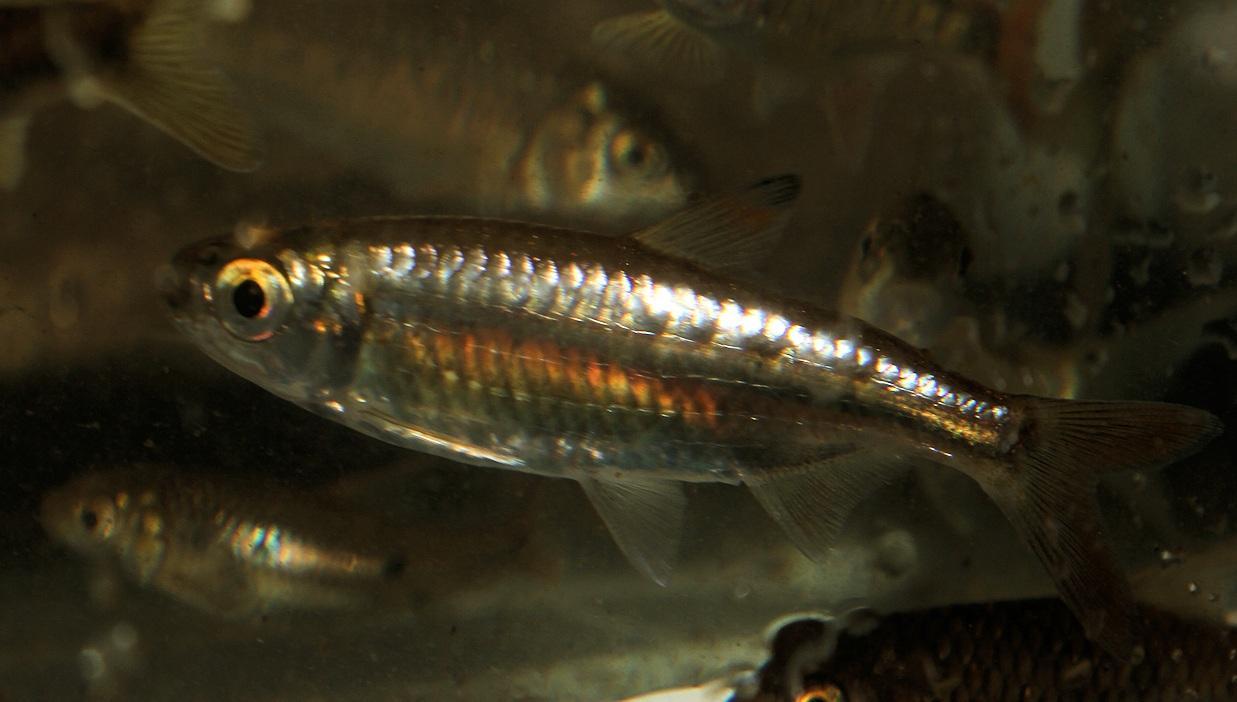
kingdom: Animalia
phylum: Chordata
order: Characiformes
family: Alestidae
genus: Micralestes
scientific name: Micralestes acutidens
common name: Silver robber
